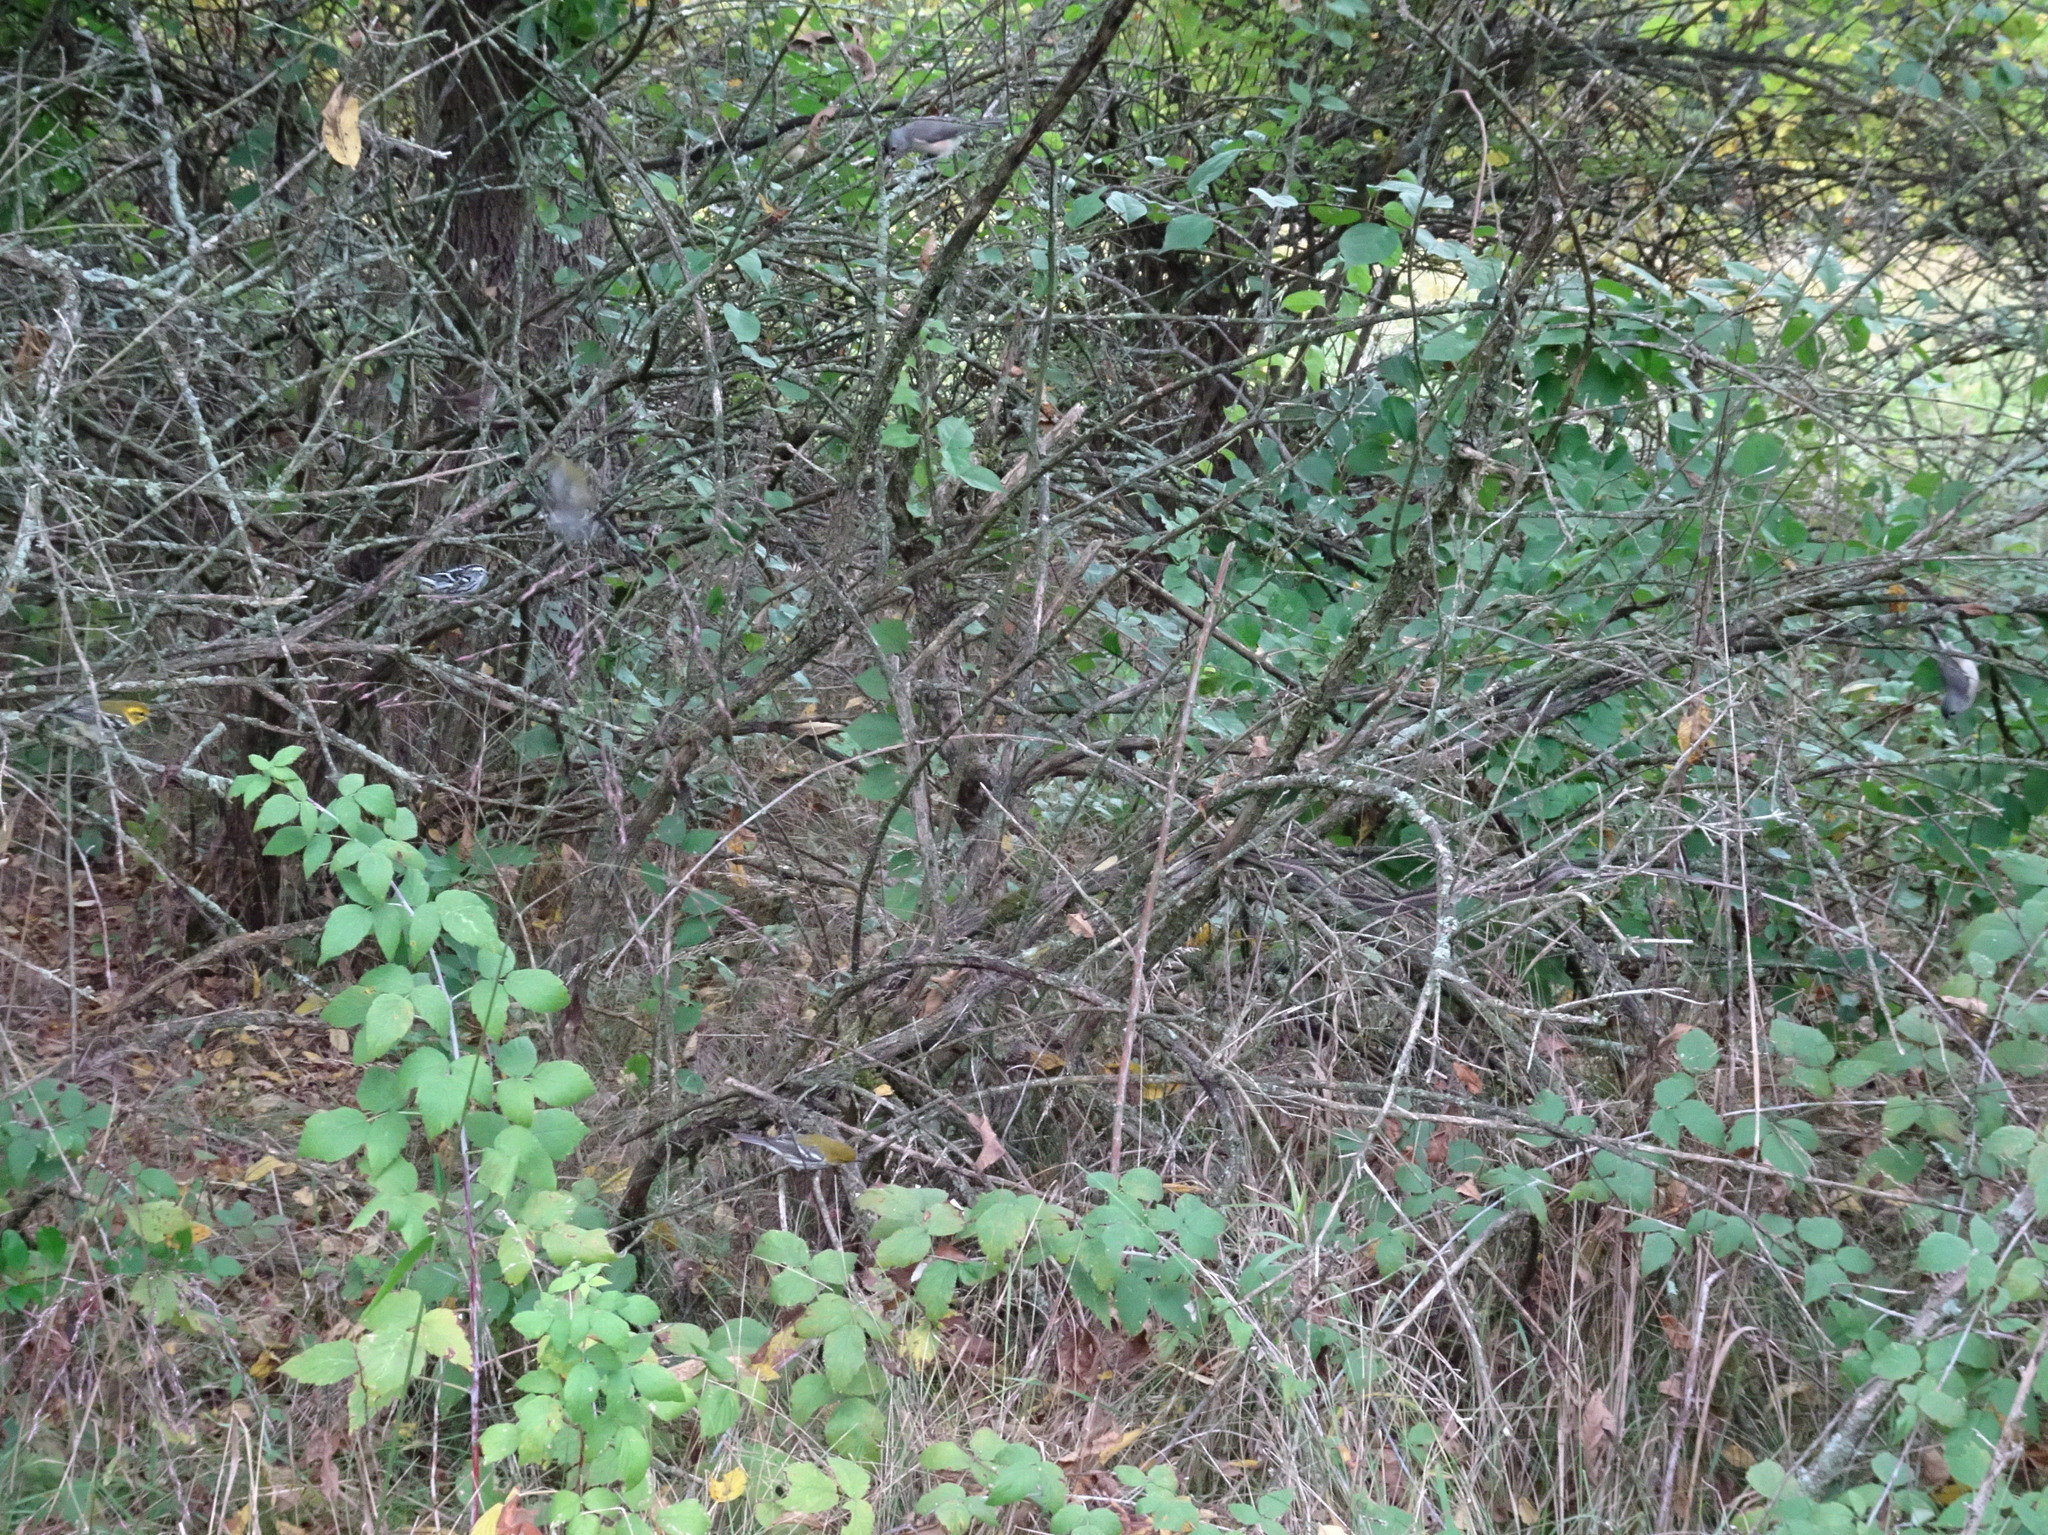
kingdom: Animalia
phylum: Chordata
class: Squamata
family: Colubridae
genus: Thamnophis
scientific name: Thamnophis sirtalis
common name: Common garter snake
